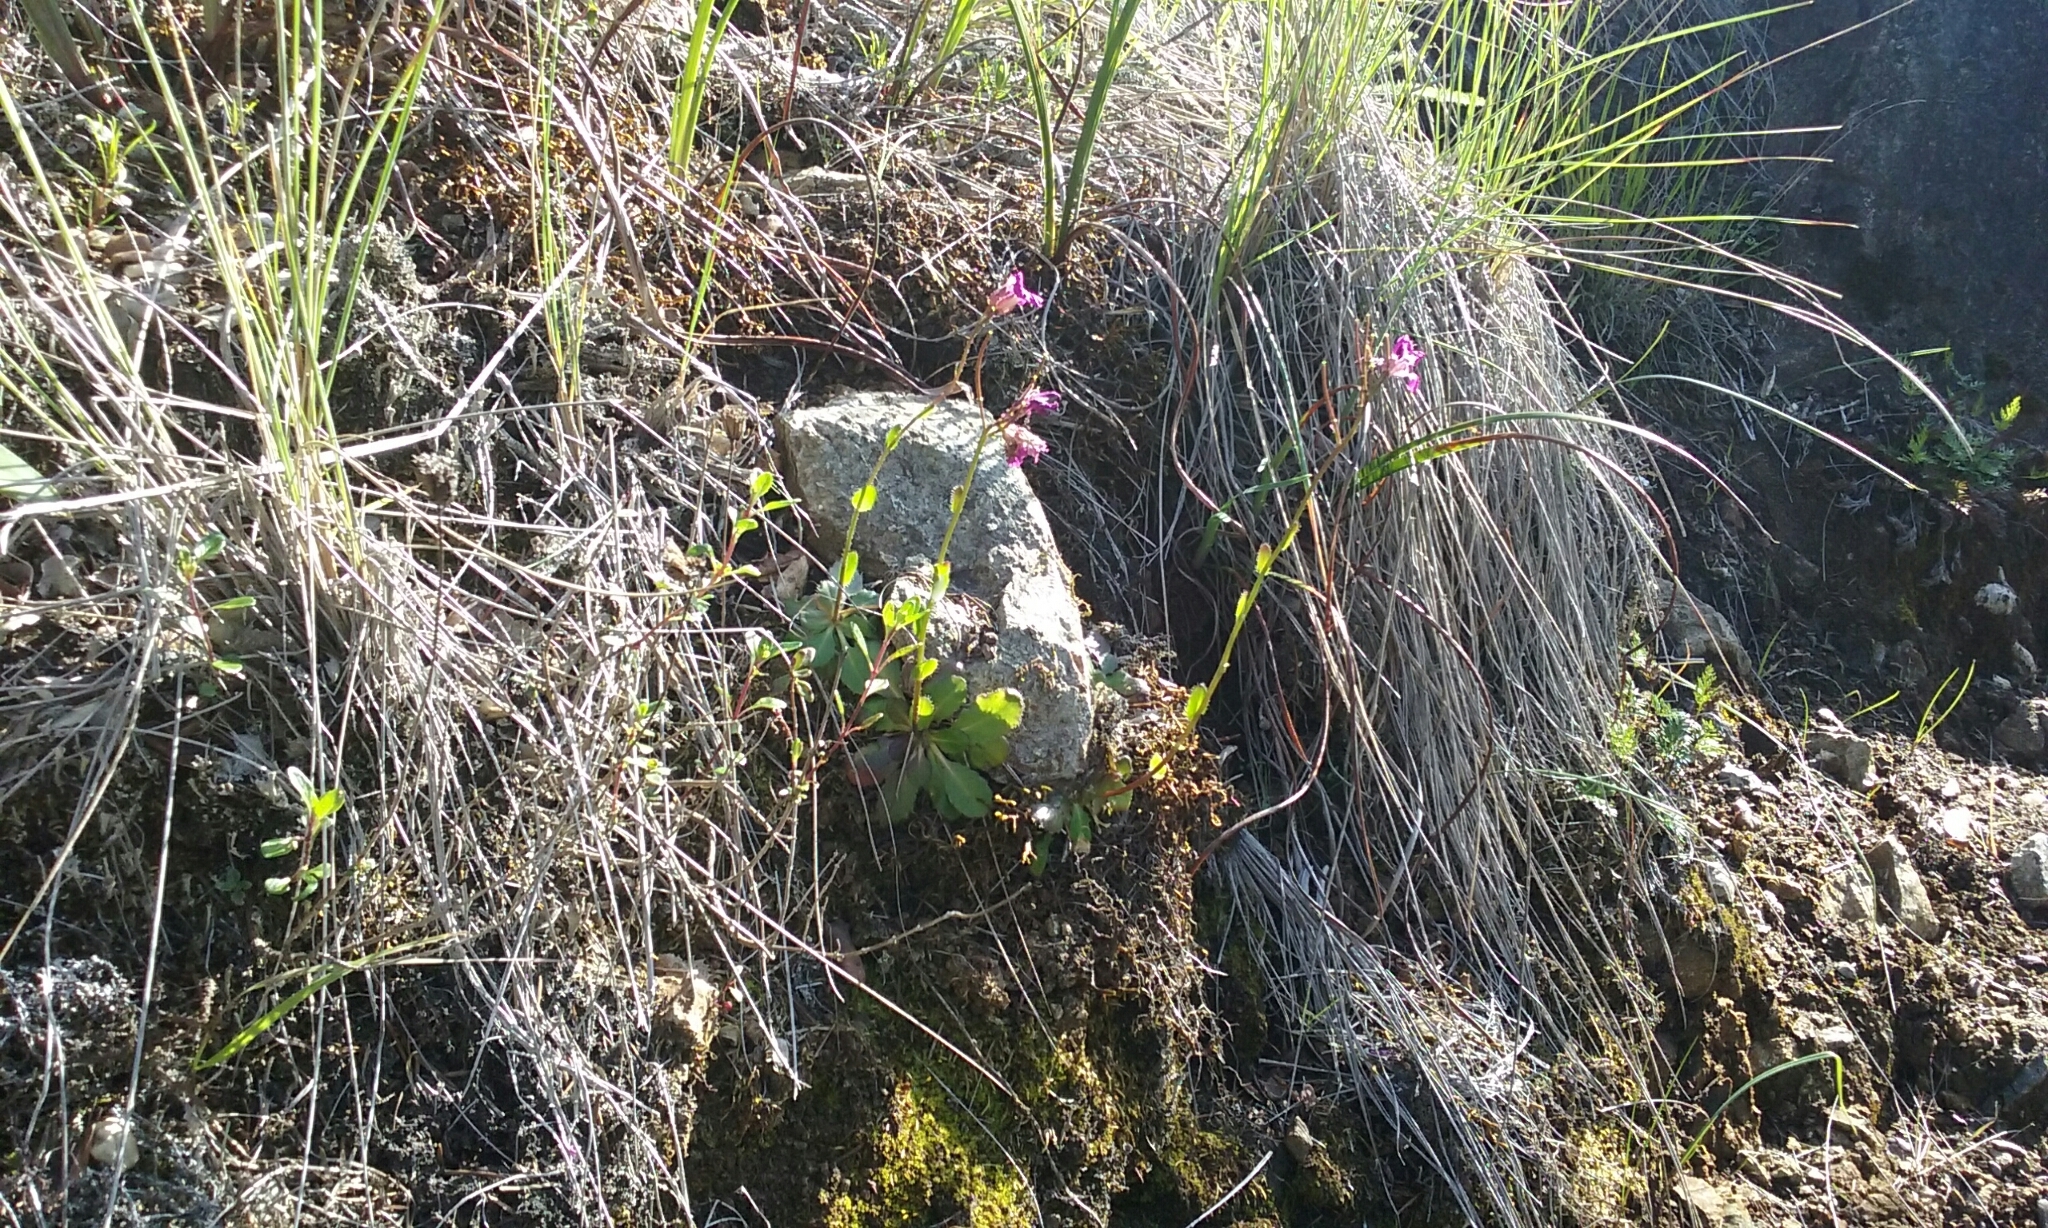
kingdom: Plantae
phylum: Tracheophyta
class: Magnoliopsida
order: Brassicales
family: Brassicaceae
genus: Arabis
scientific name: Arabis blepharophylla
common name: Rose rockcress
